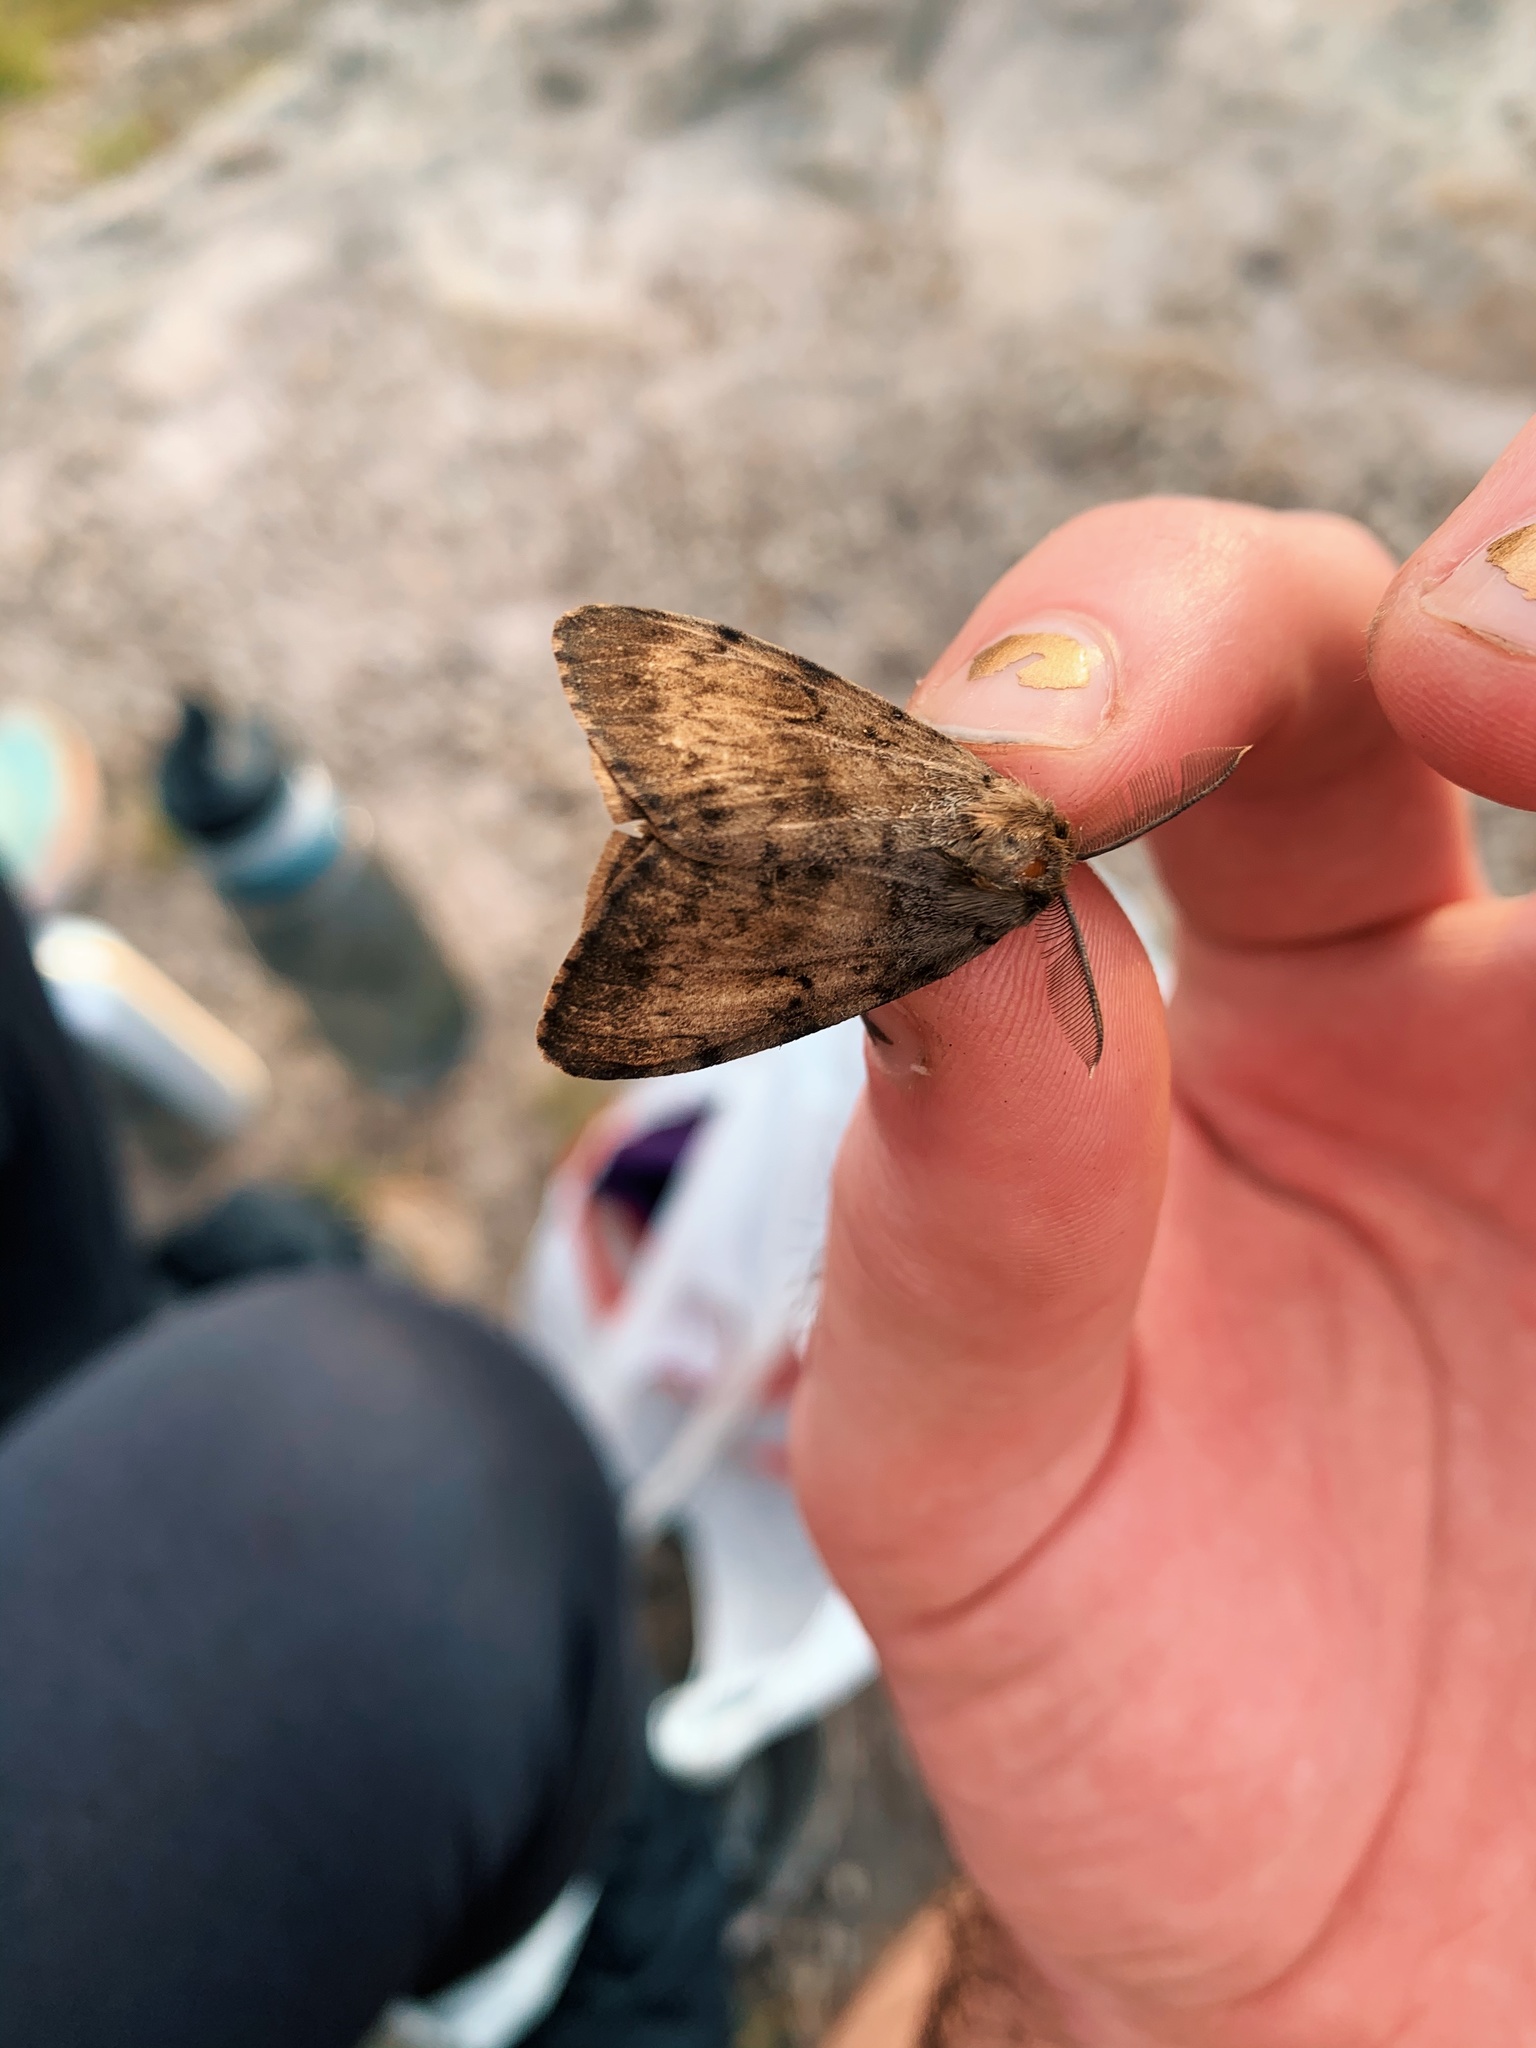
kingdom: Animalia
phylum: Arthropoda
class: Insecta
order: Lepidoptera
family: Erebidae
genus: Lymantria
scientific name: Lymantria dispar
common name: Gypsy moth
